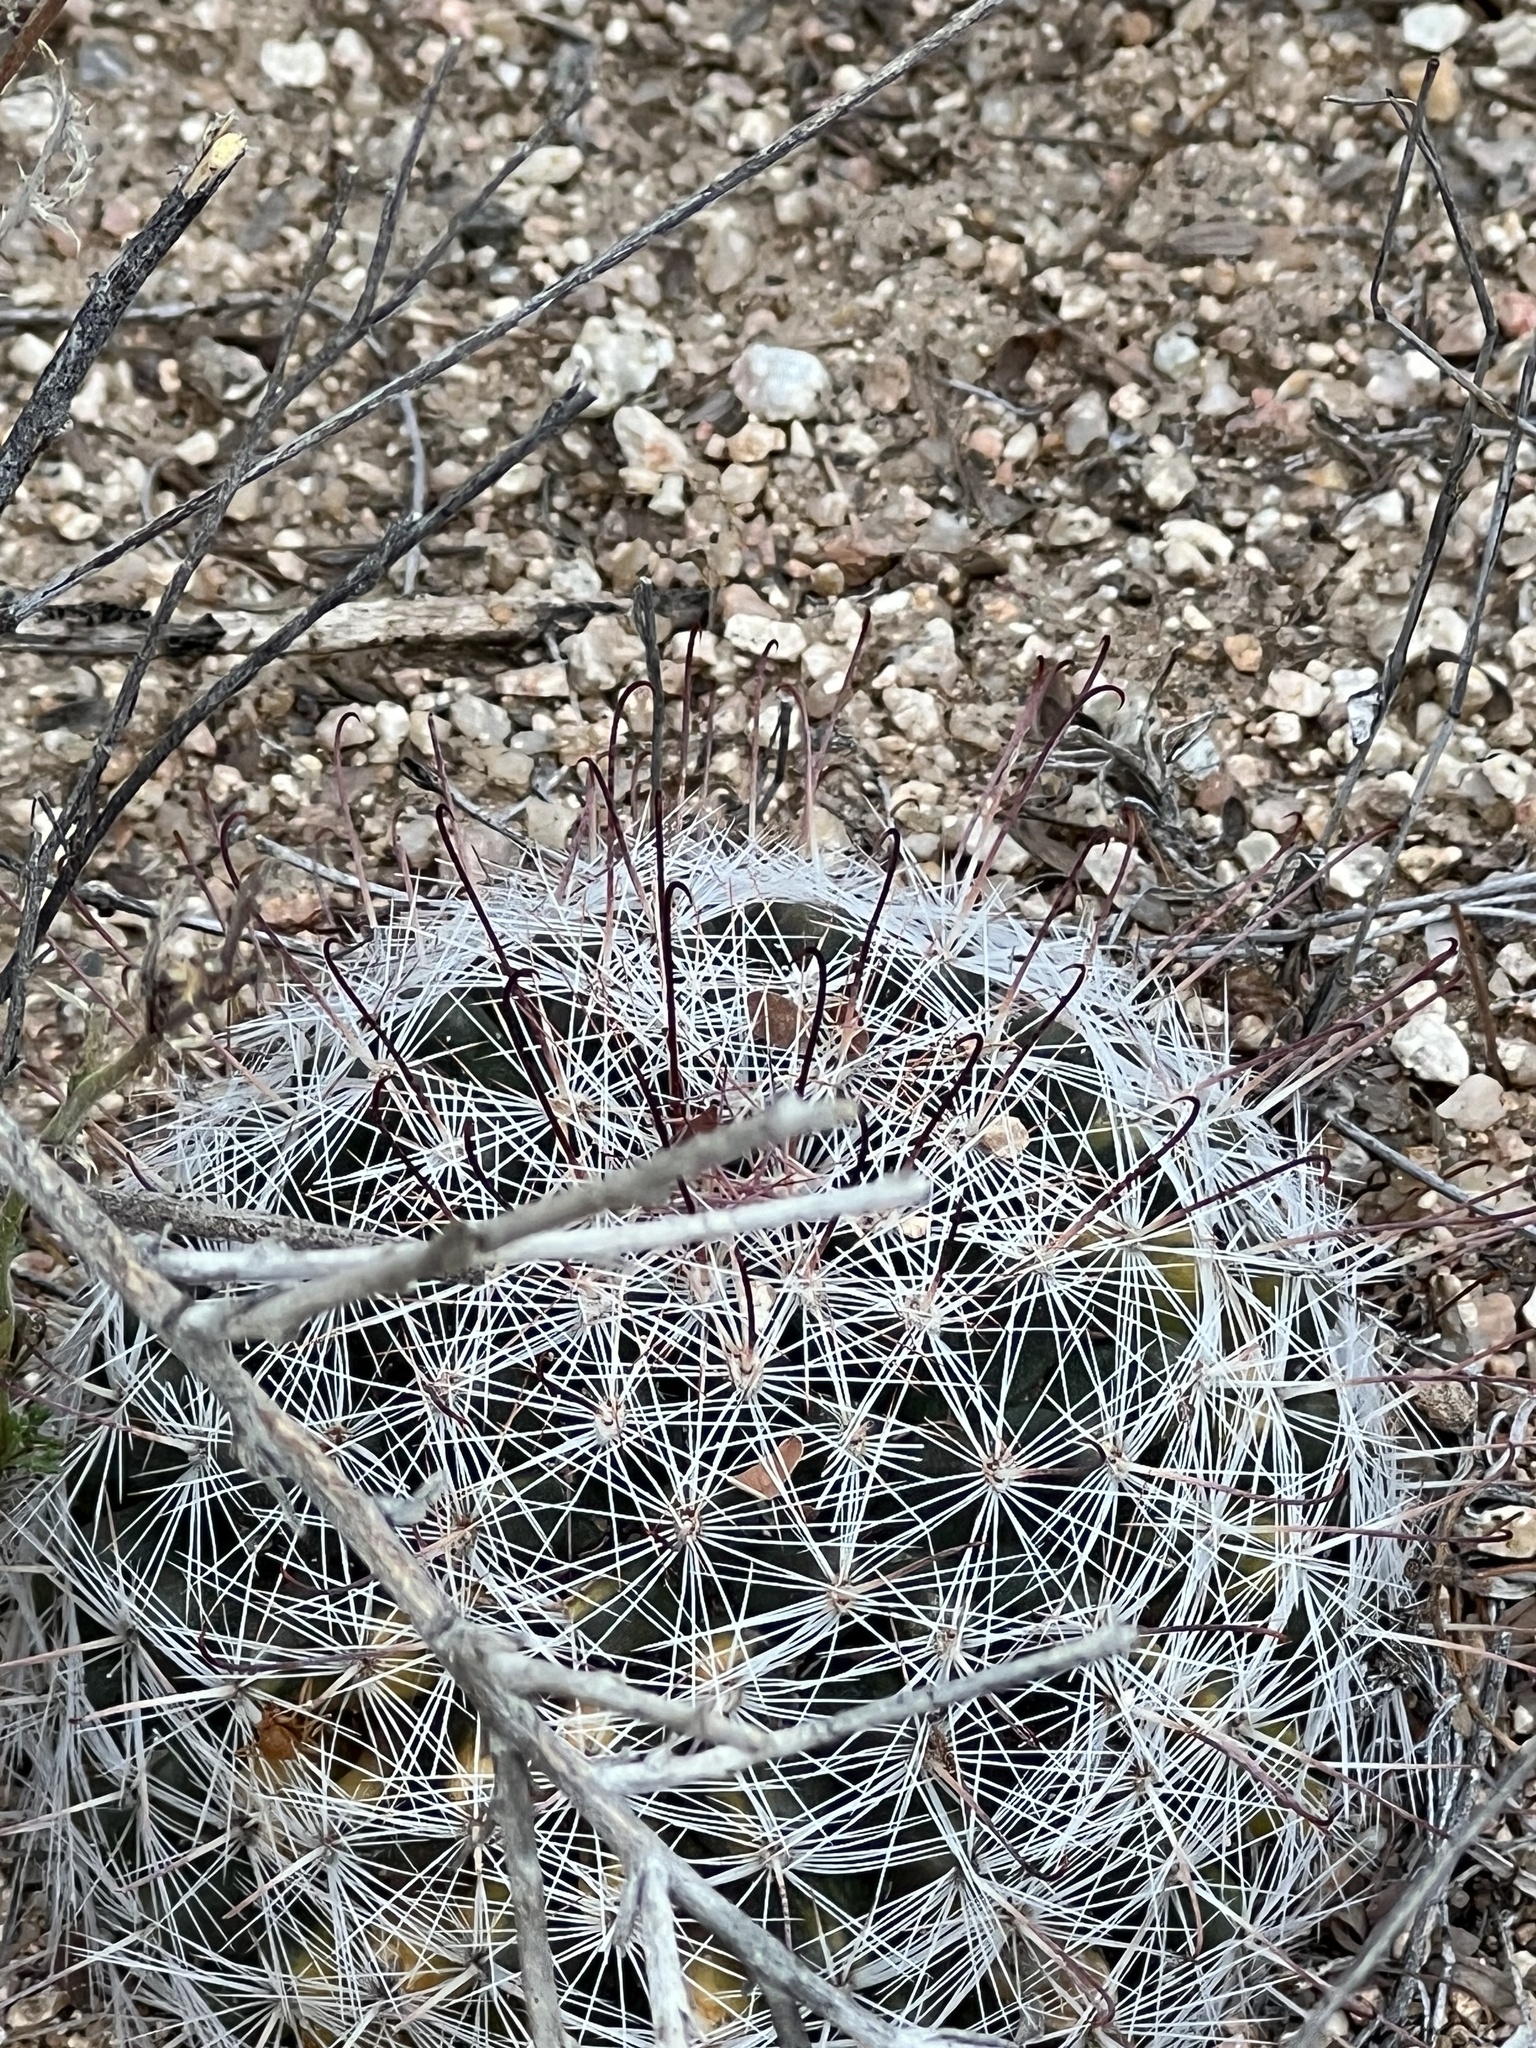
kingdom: Plantae
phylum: Tracheophyta
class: Magnoliopsida
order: Caryophyllales
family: Cactaceae
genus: Cochemiea
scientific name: Cochemiea grahamii
